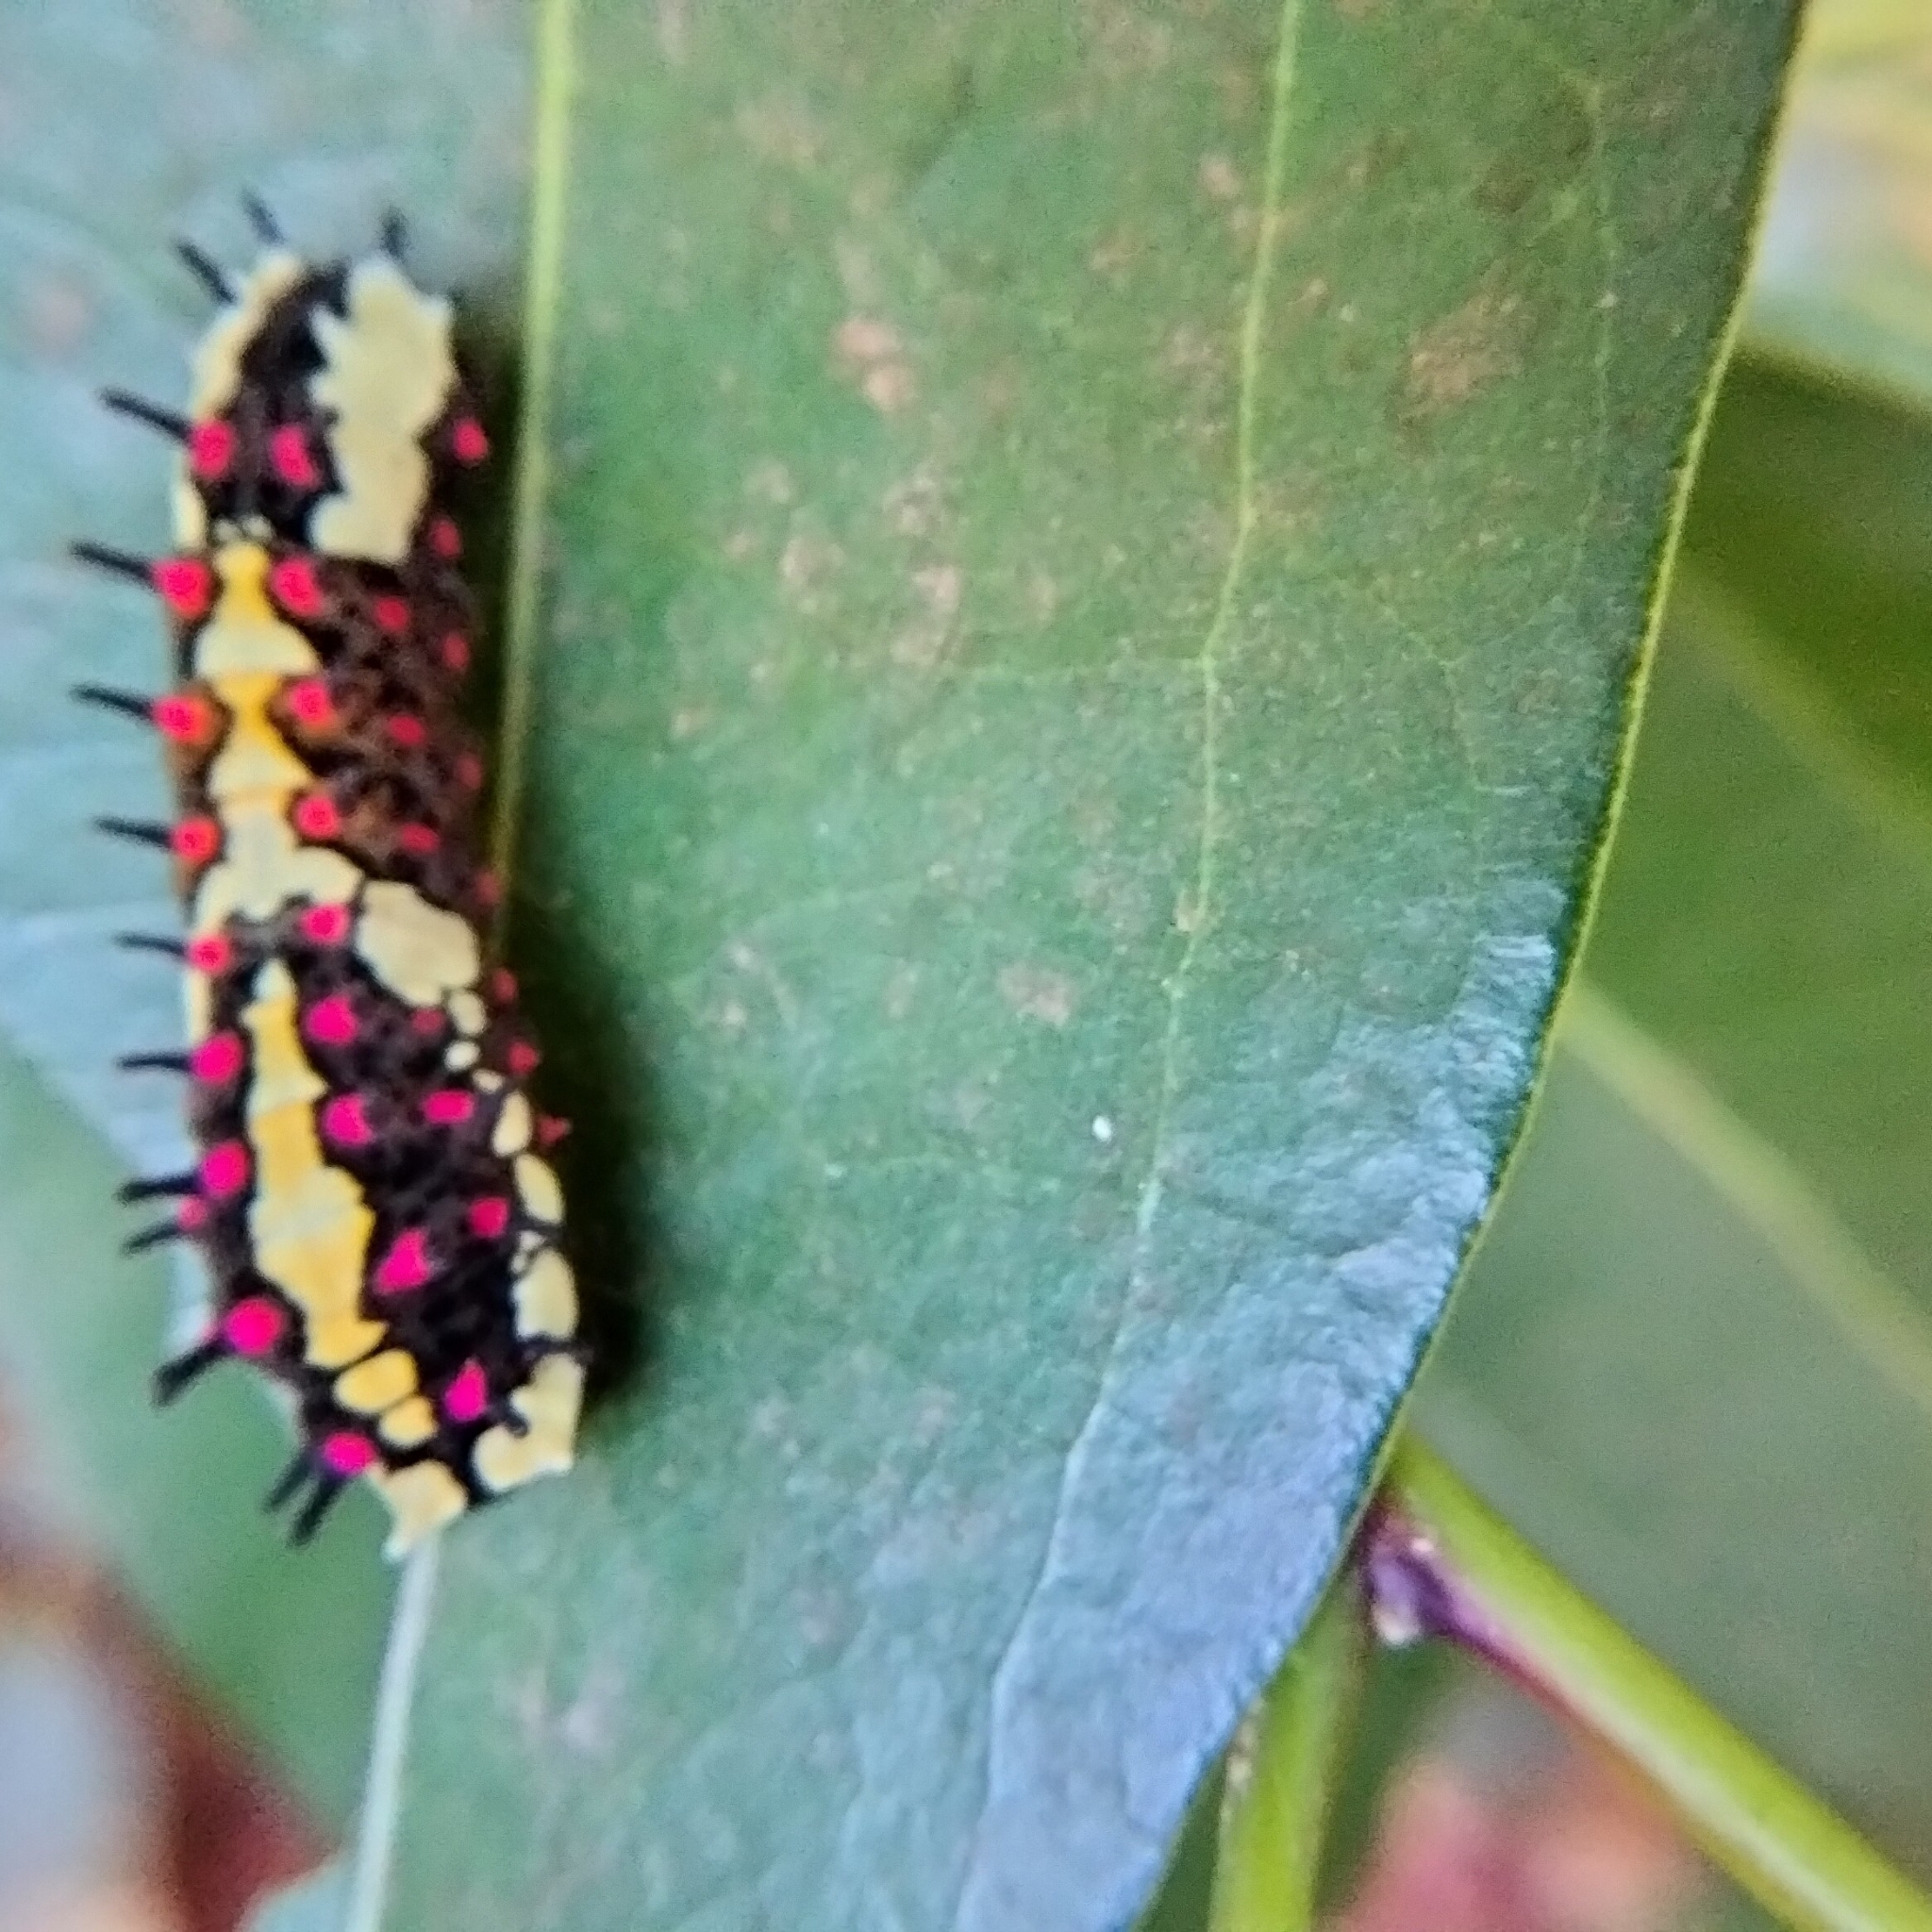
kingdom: Animalia
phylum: Arthropoda
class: Insecta
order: Lepidoptera
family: Papilionidae
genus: Chilasa
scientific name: Chilasa clytia
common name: Common mime
